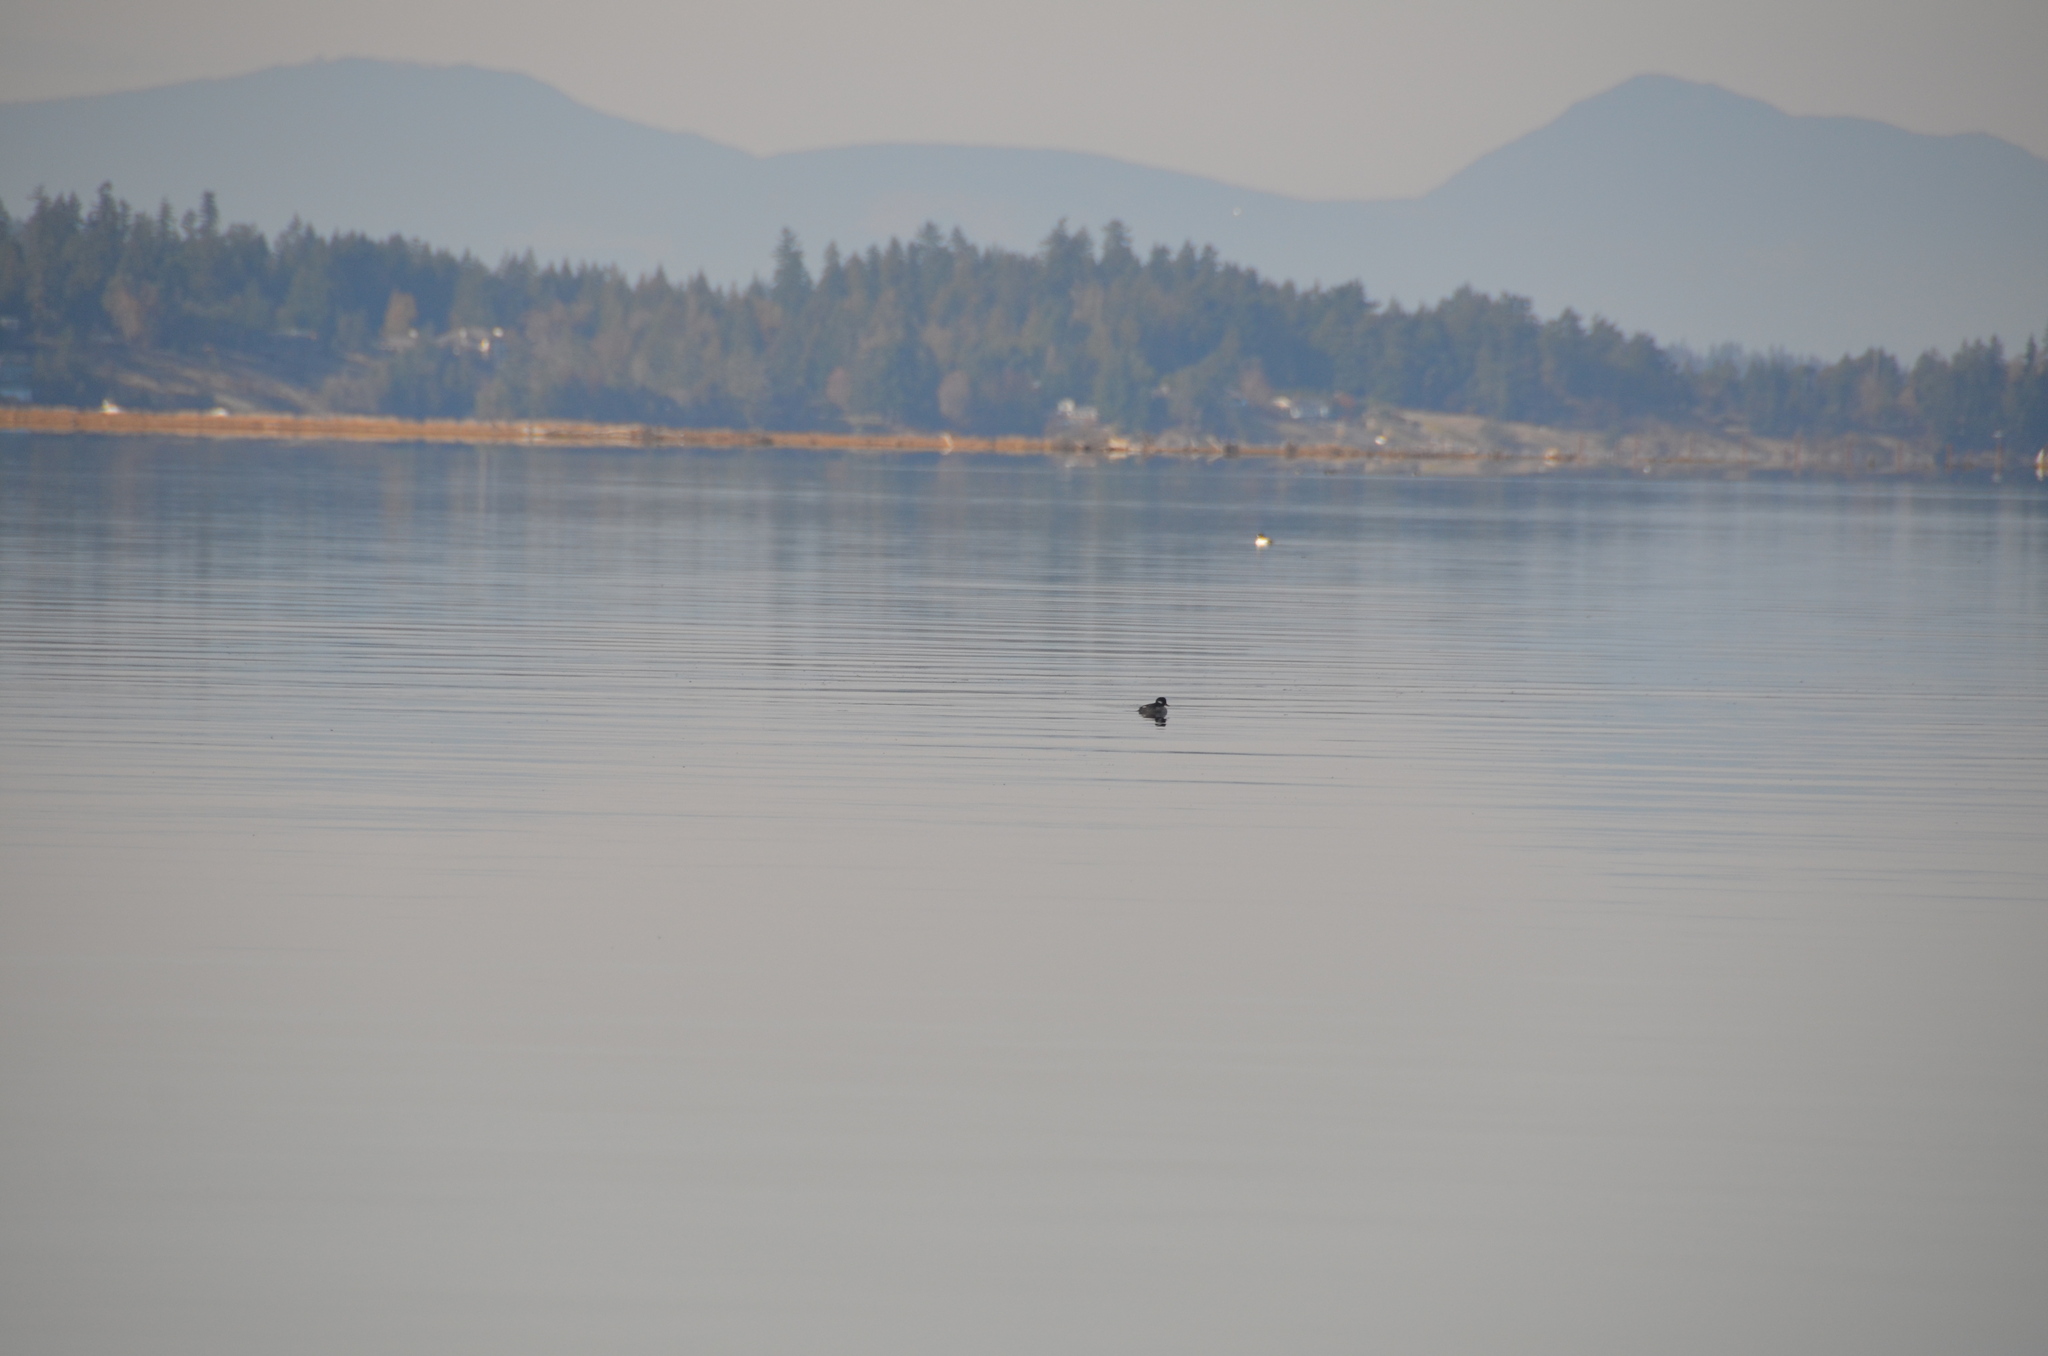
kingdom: Animalia
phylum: Chordata
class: Aves
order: Anseriformes
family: Anatidae
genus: Bucephala
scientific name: Bucephala albeola
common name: Bufflehead
